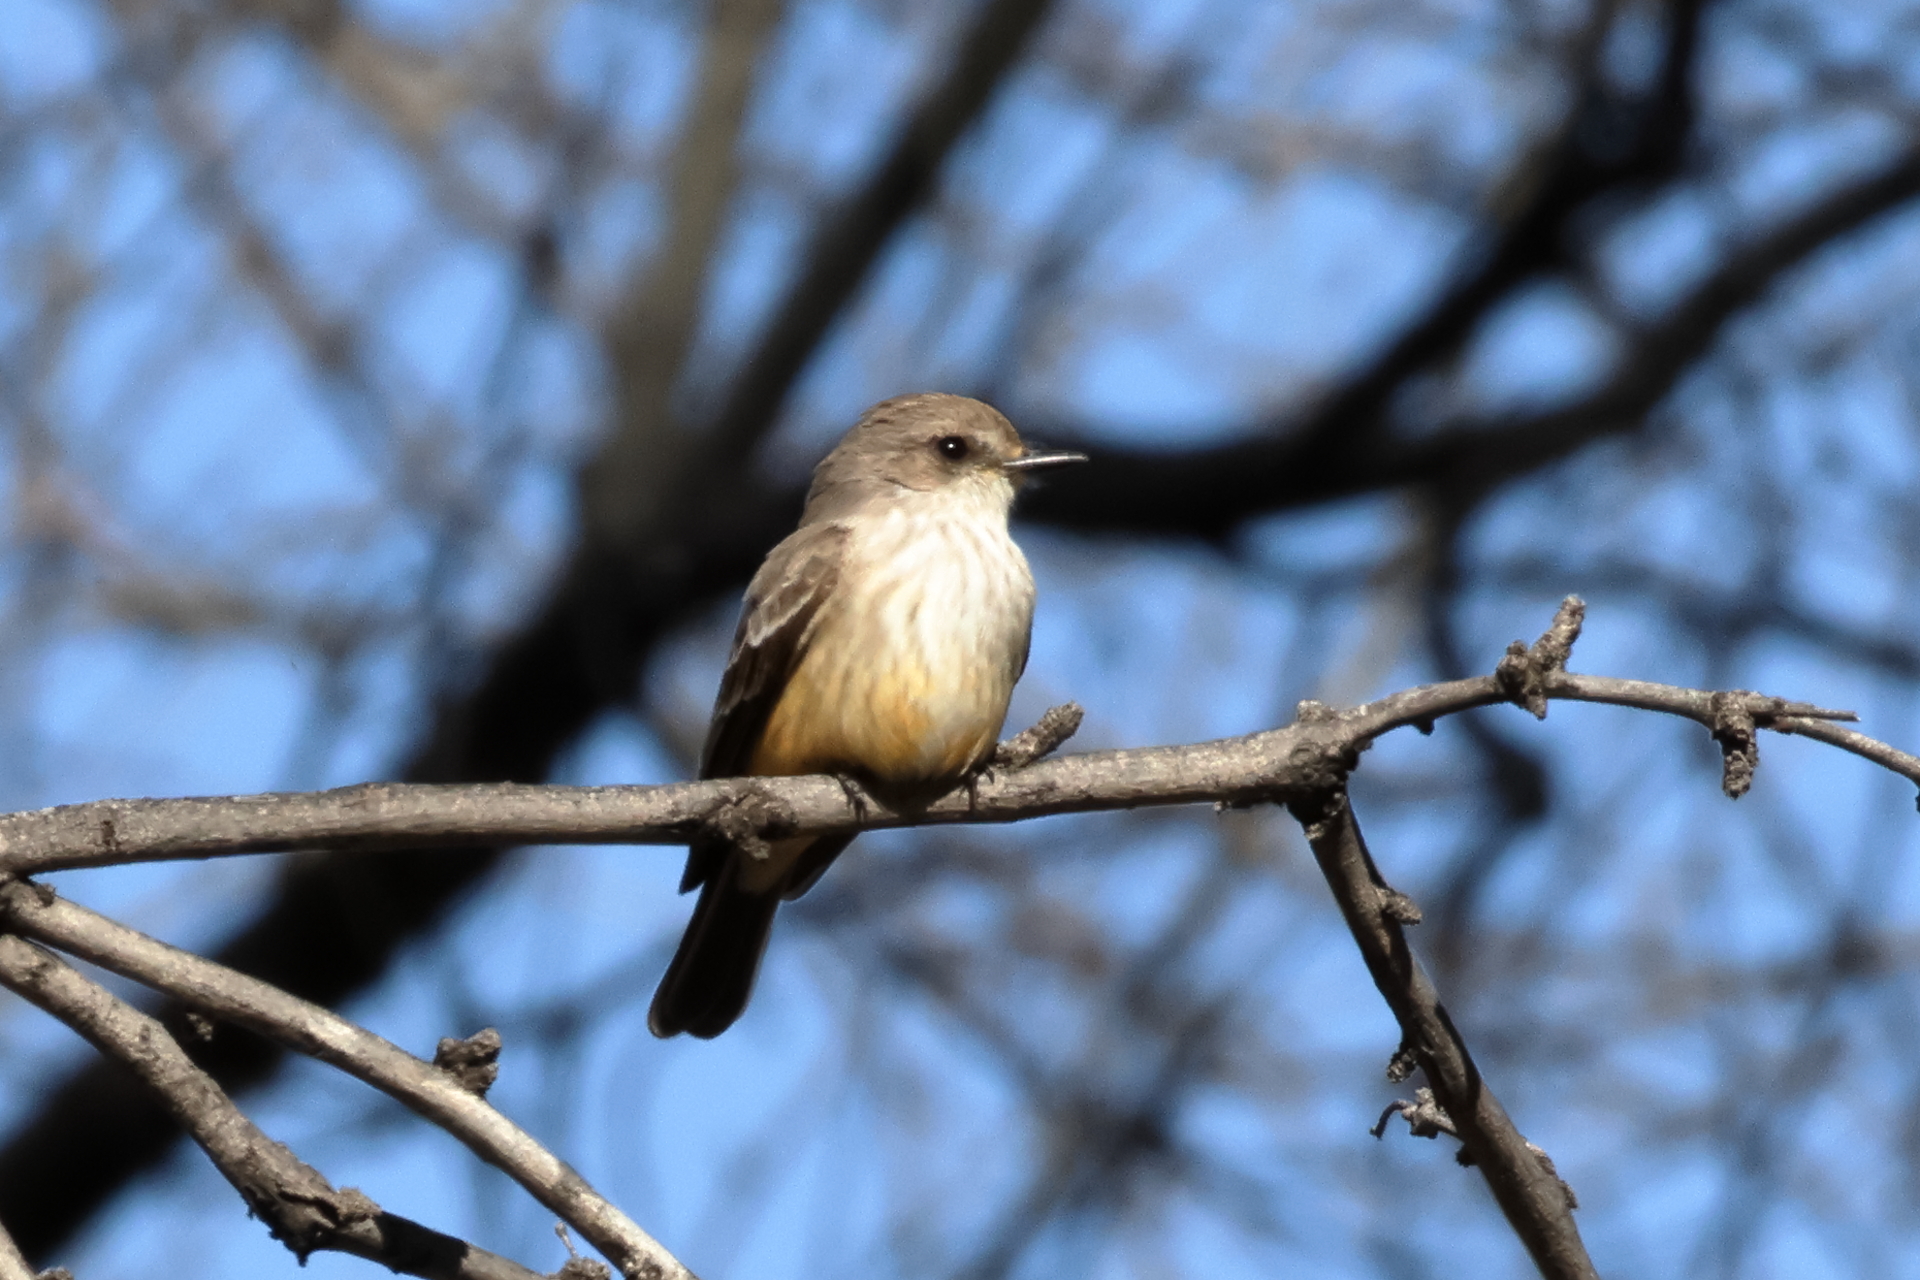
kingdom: Animalia
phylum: Chordata
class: Aves
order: Passeriformes
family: Tyrannidae
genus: Pyrocephalus
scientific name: Pyrocephalus rubinus
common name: Vermilion flycatcher
